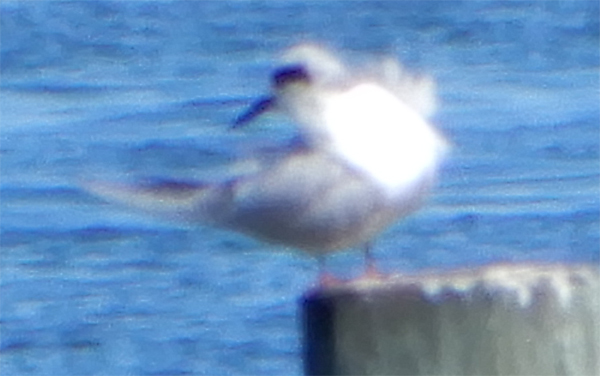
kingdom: Animalia
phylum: Chordata
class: Aves
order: Charadriiformes
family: Laridae
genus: Sterna
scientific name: Sterna forsteri
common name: Forster's tern
